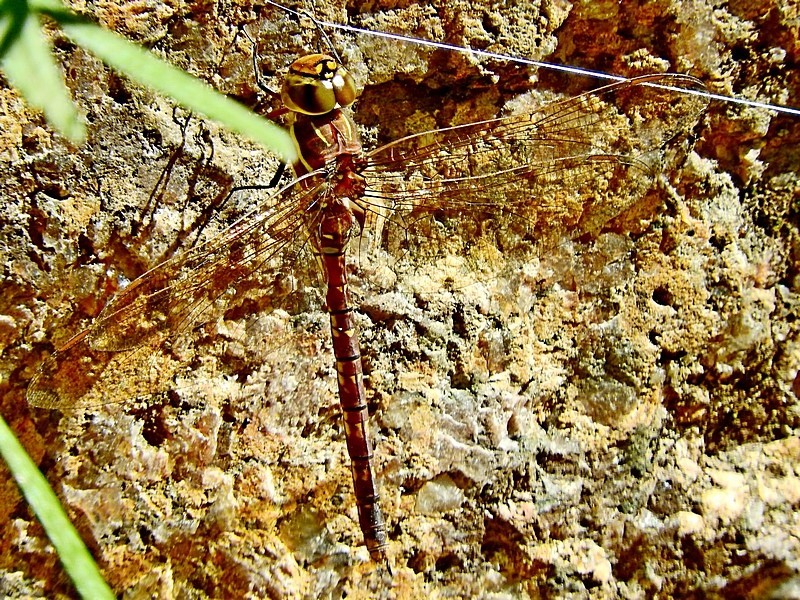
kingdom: Animalia
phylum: Arthropoda
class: Insecta
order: Odonata
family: Aeshnidae
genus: Aeshna
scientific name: Aeshna brevistyla
